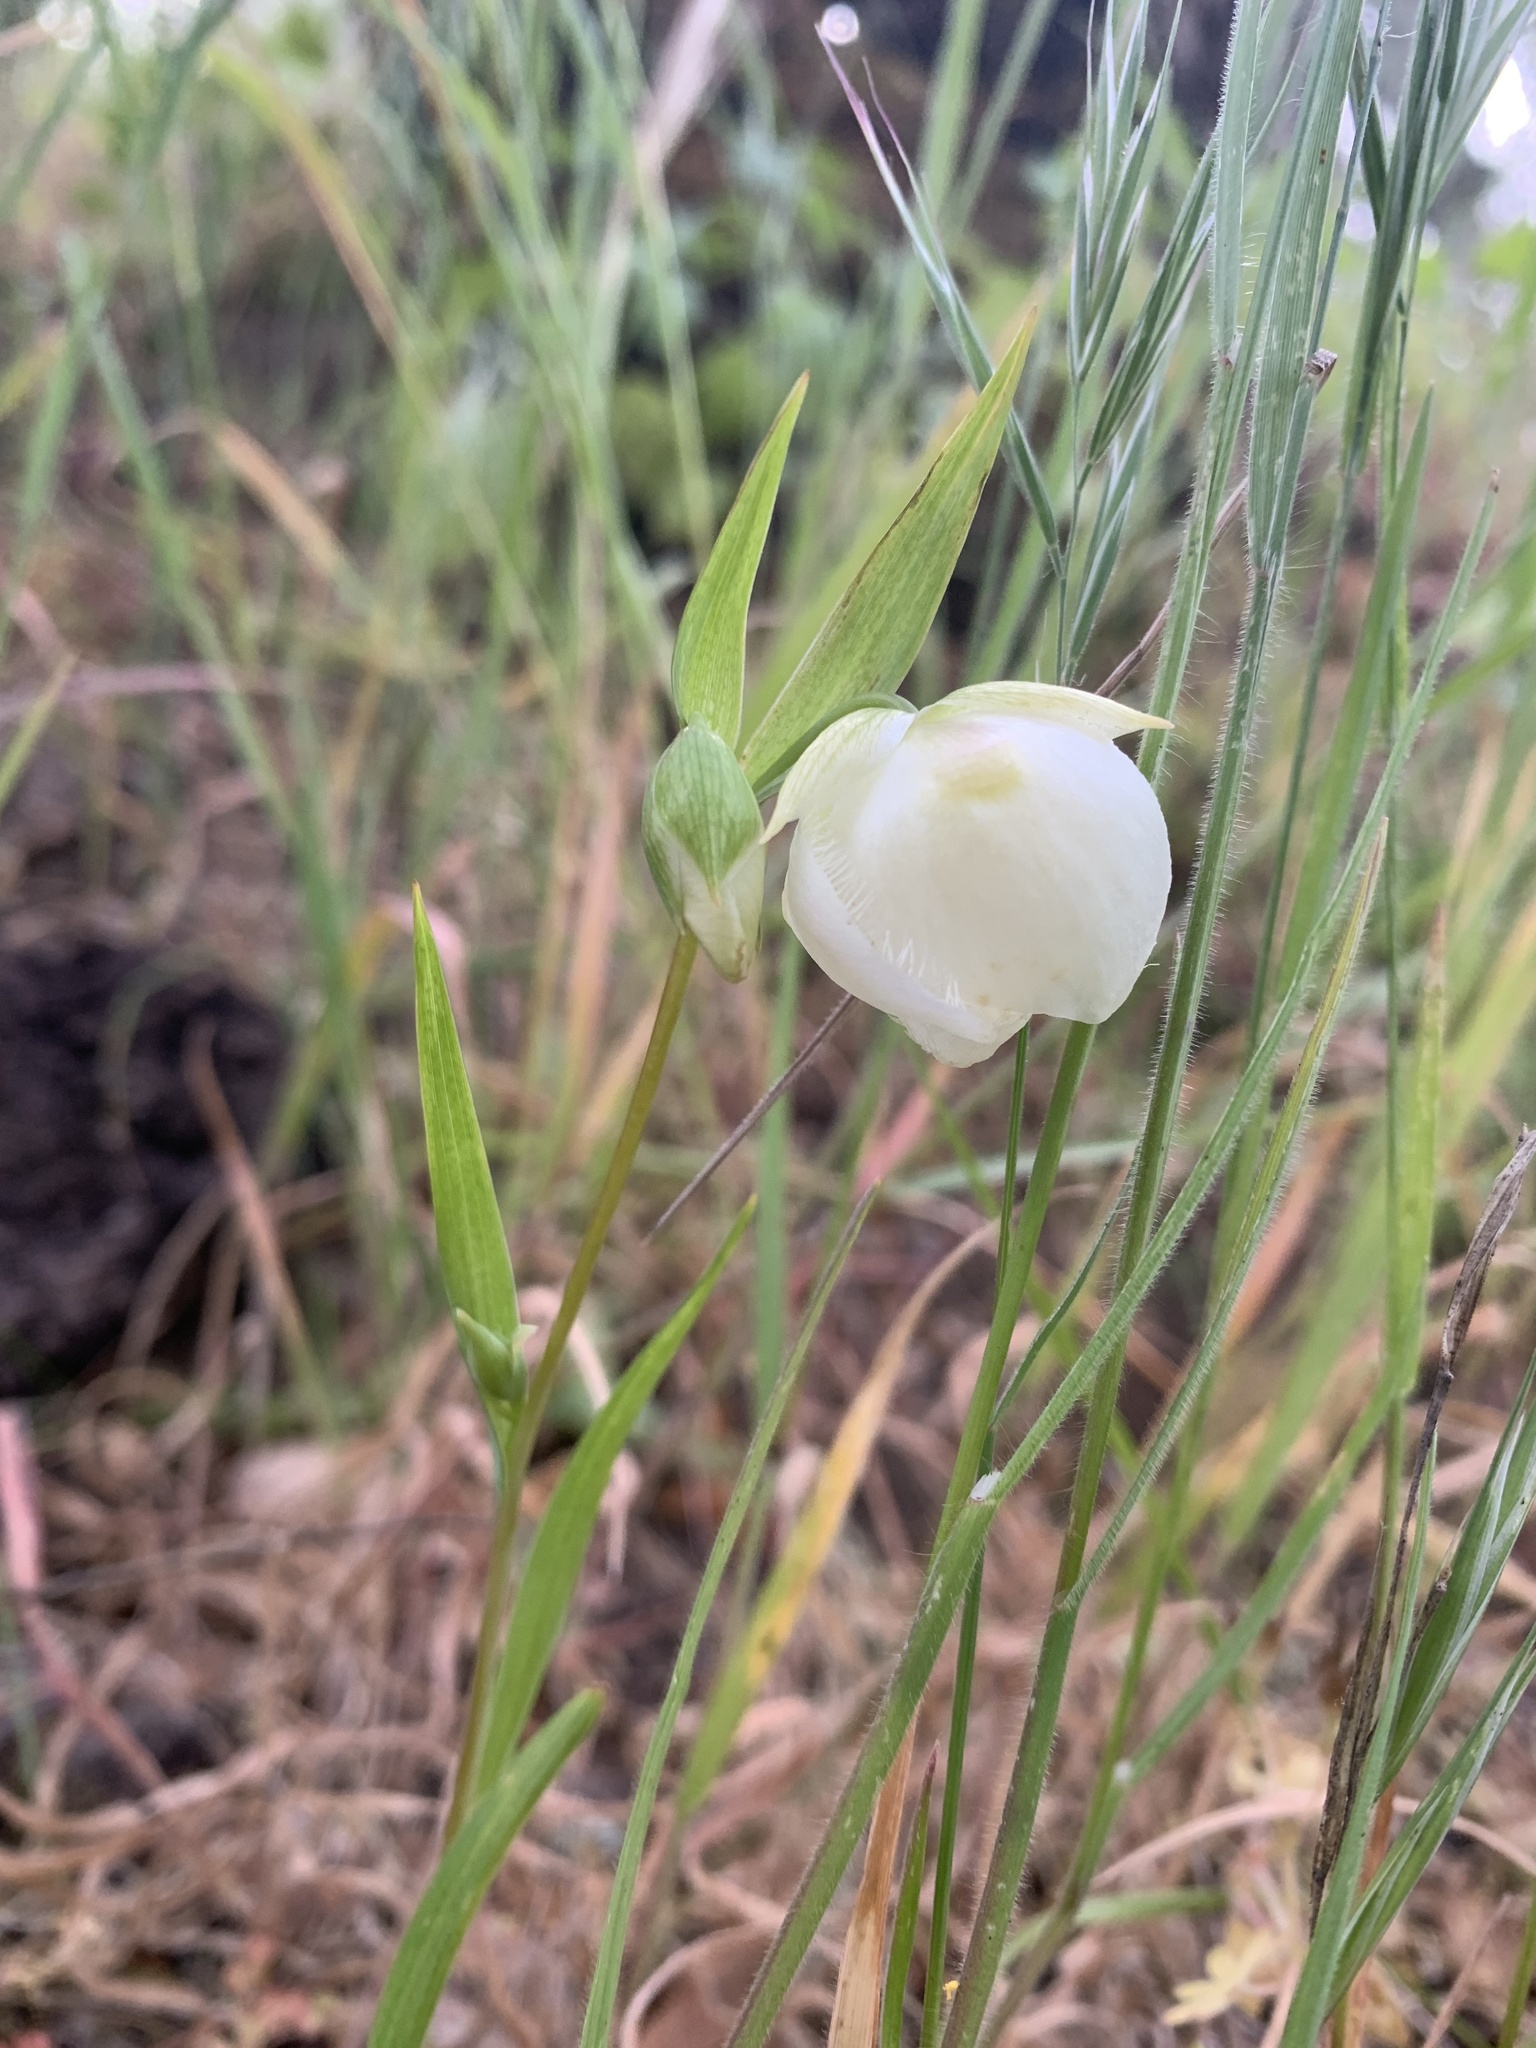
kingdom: Plantae
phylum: Tracheophyta
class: Liliopsida
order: Liliales
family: Liliaceae
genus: Calochortus
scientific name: Calochortus albus
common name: Fairy-lantern
